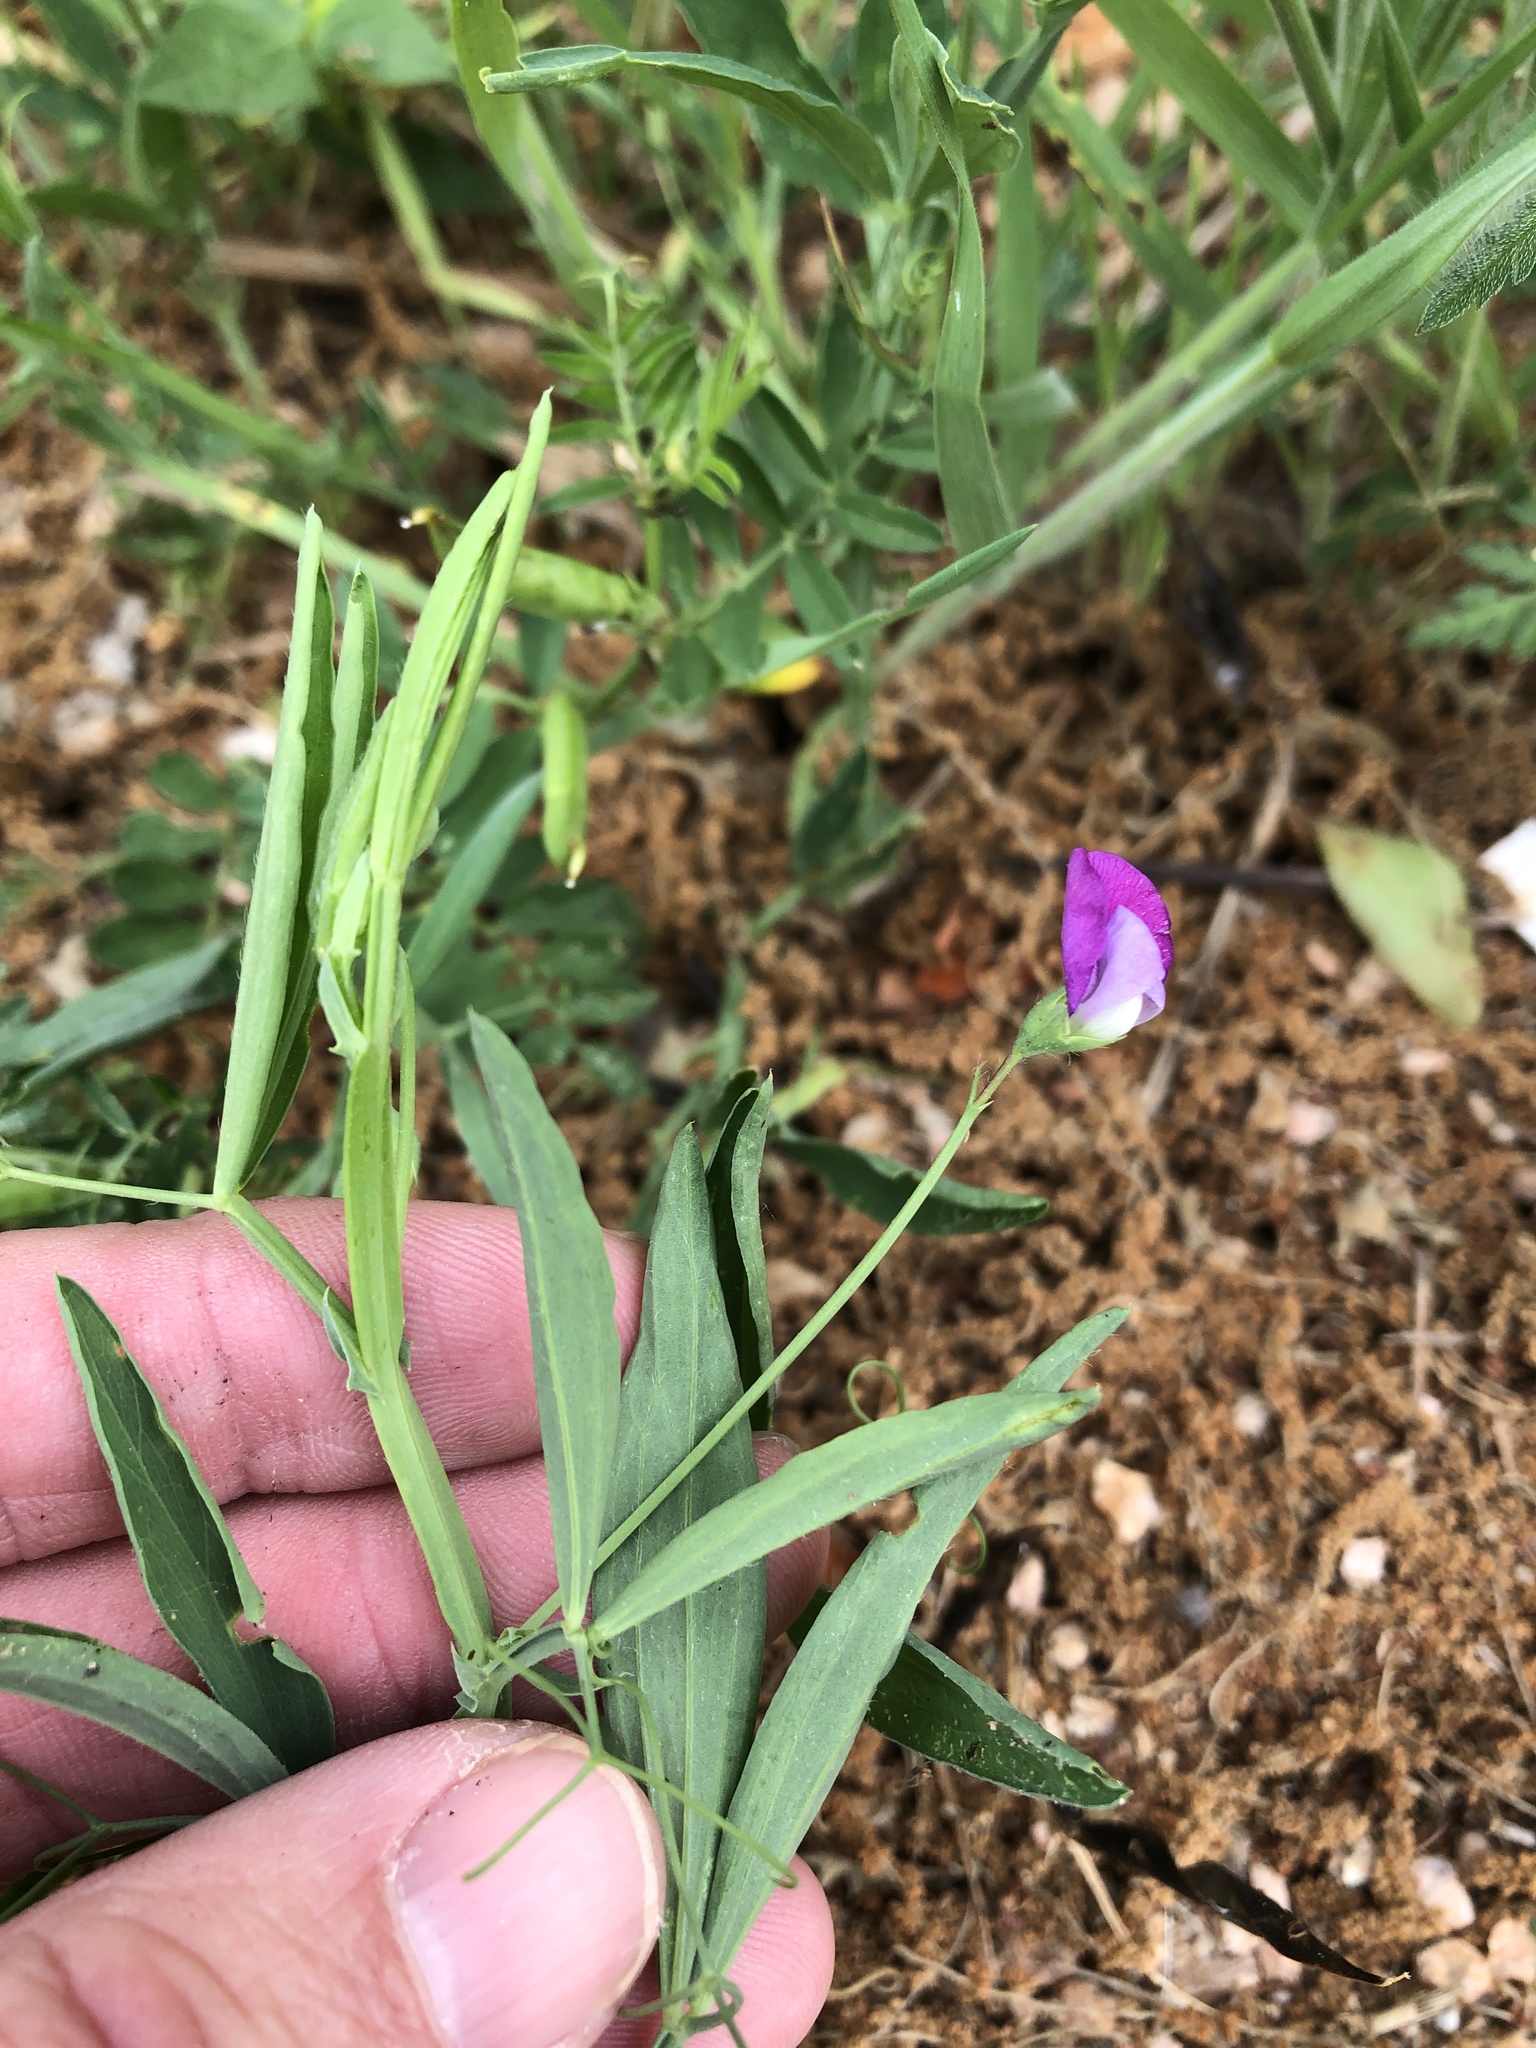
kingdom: Plantae
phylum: Tracheophyta
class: Magnoliopsida
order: Fabales
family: Fabaceae
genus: Lathyrus
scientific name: Lathyrus hirsutus
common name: Hairy vetchling
